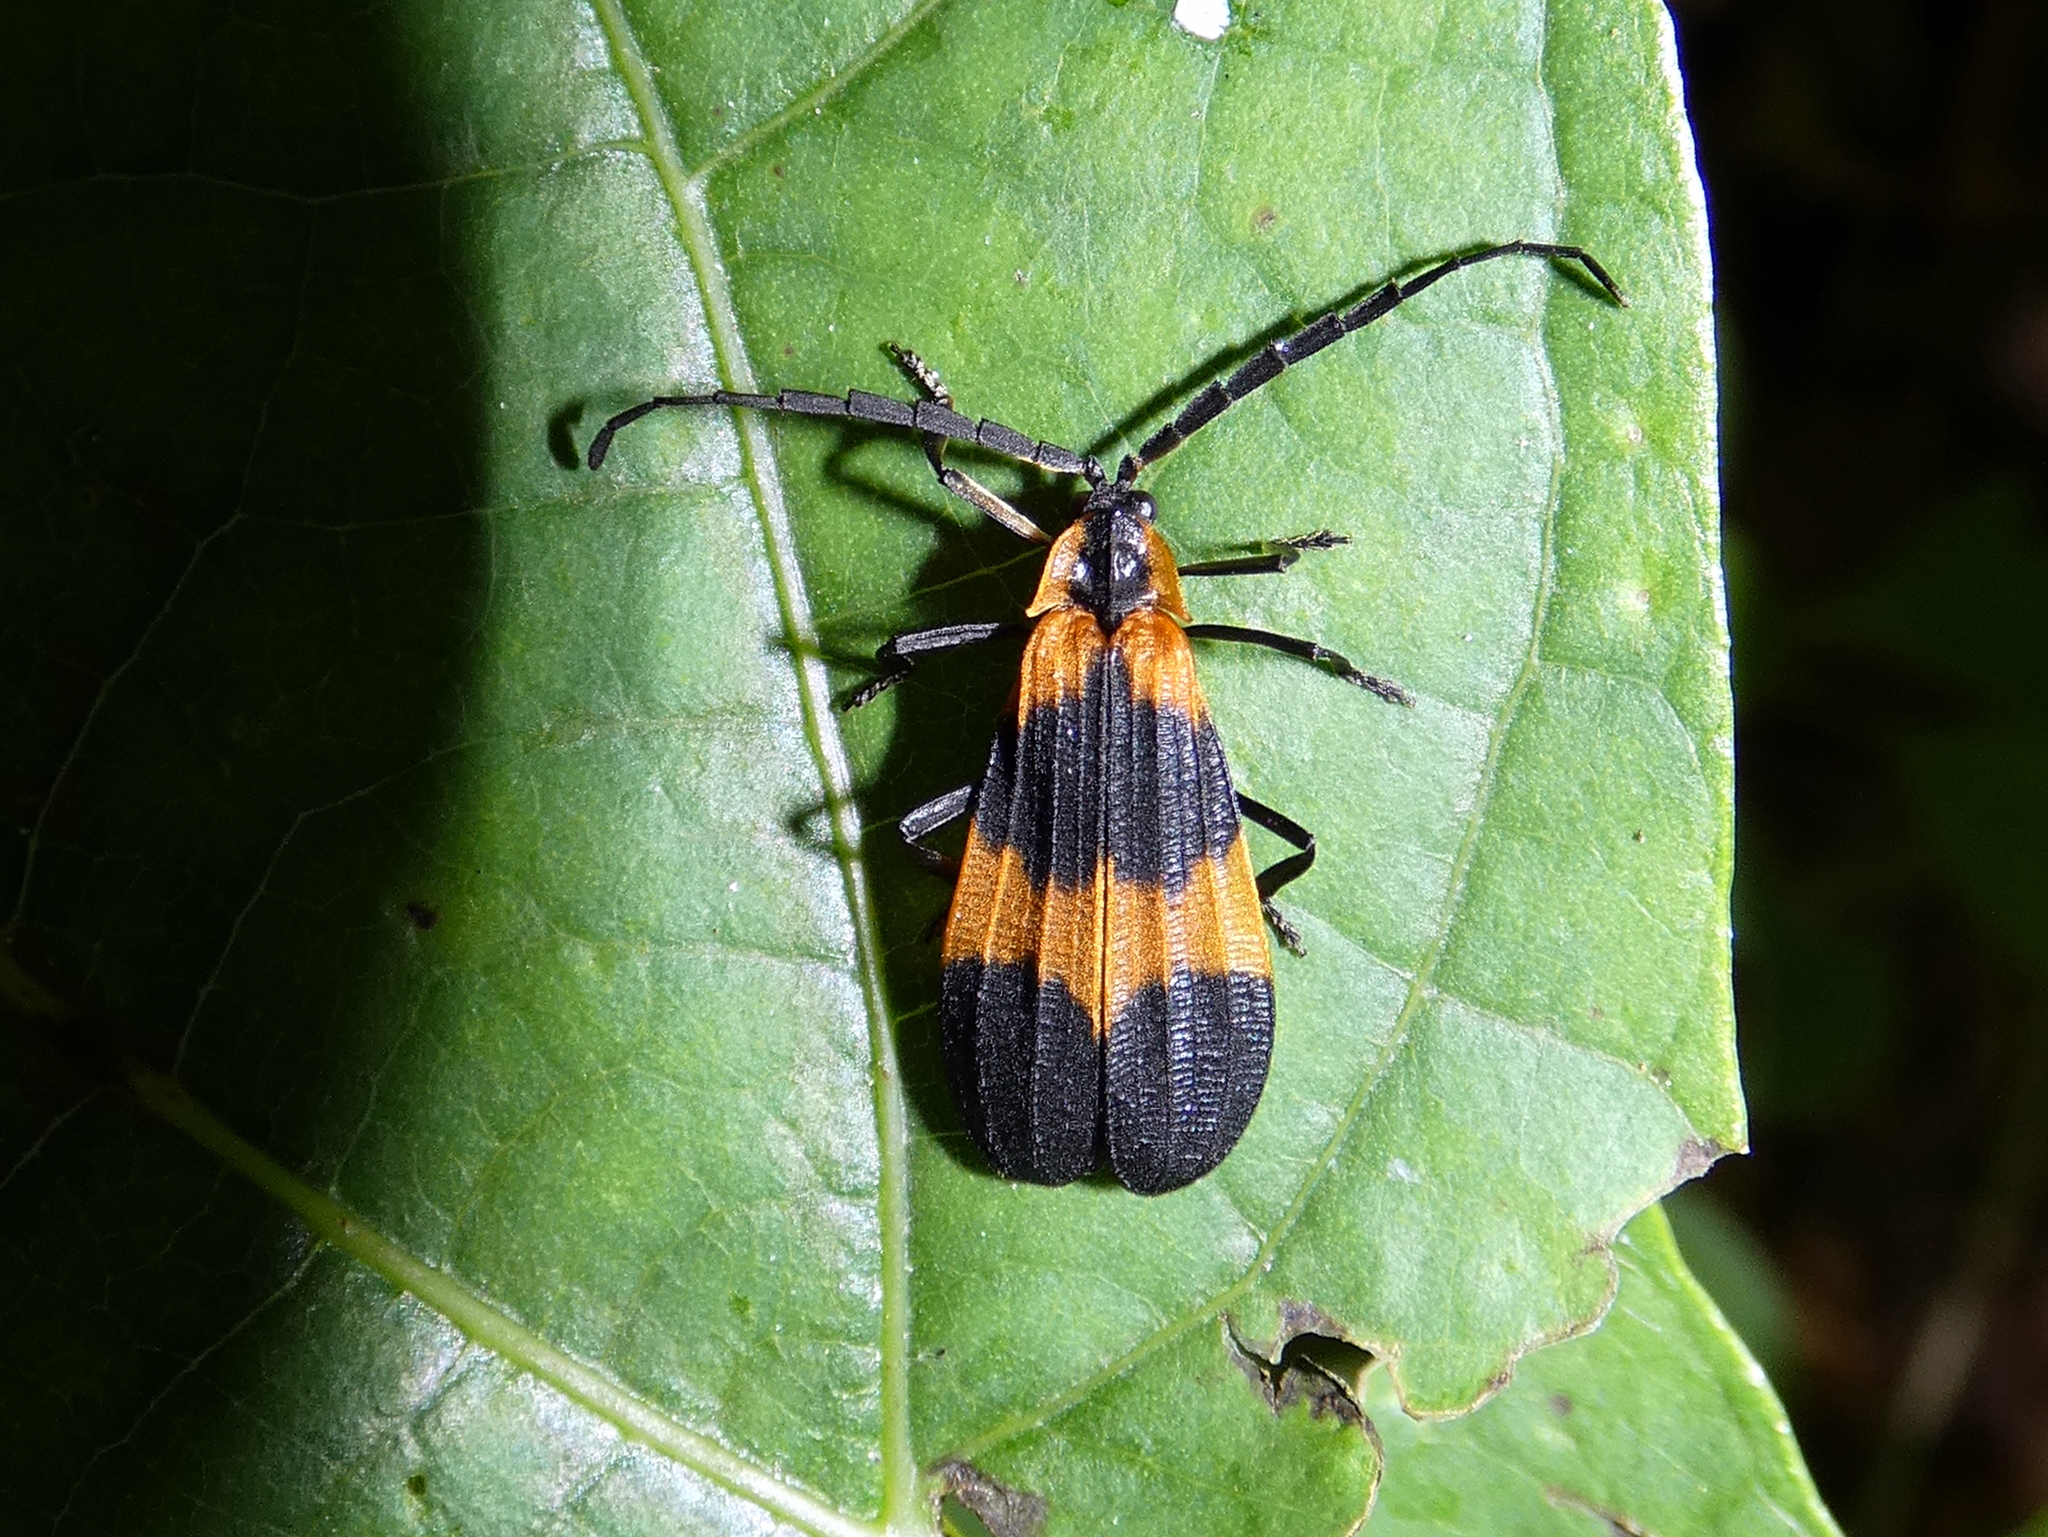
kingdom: Animalia
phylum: Arthropoda
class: Insecta
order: Coleoptera
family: Lycidae
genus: Calopteron
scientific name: Calopteron reticulatum
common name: Banded net-winged beetle
